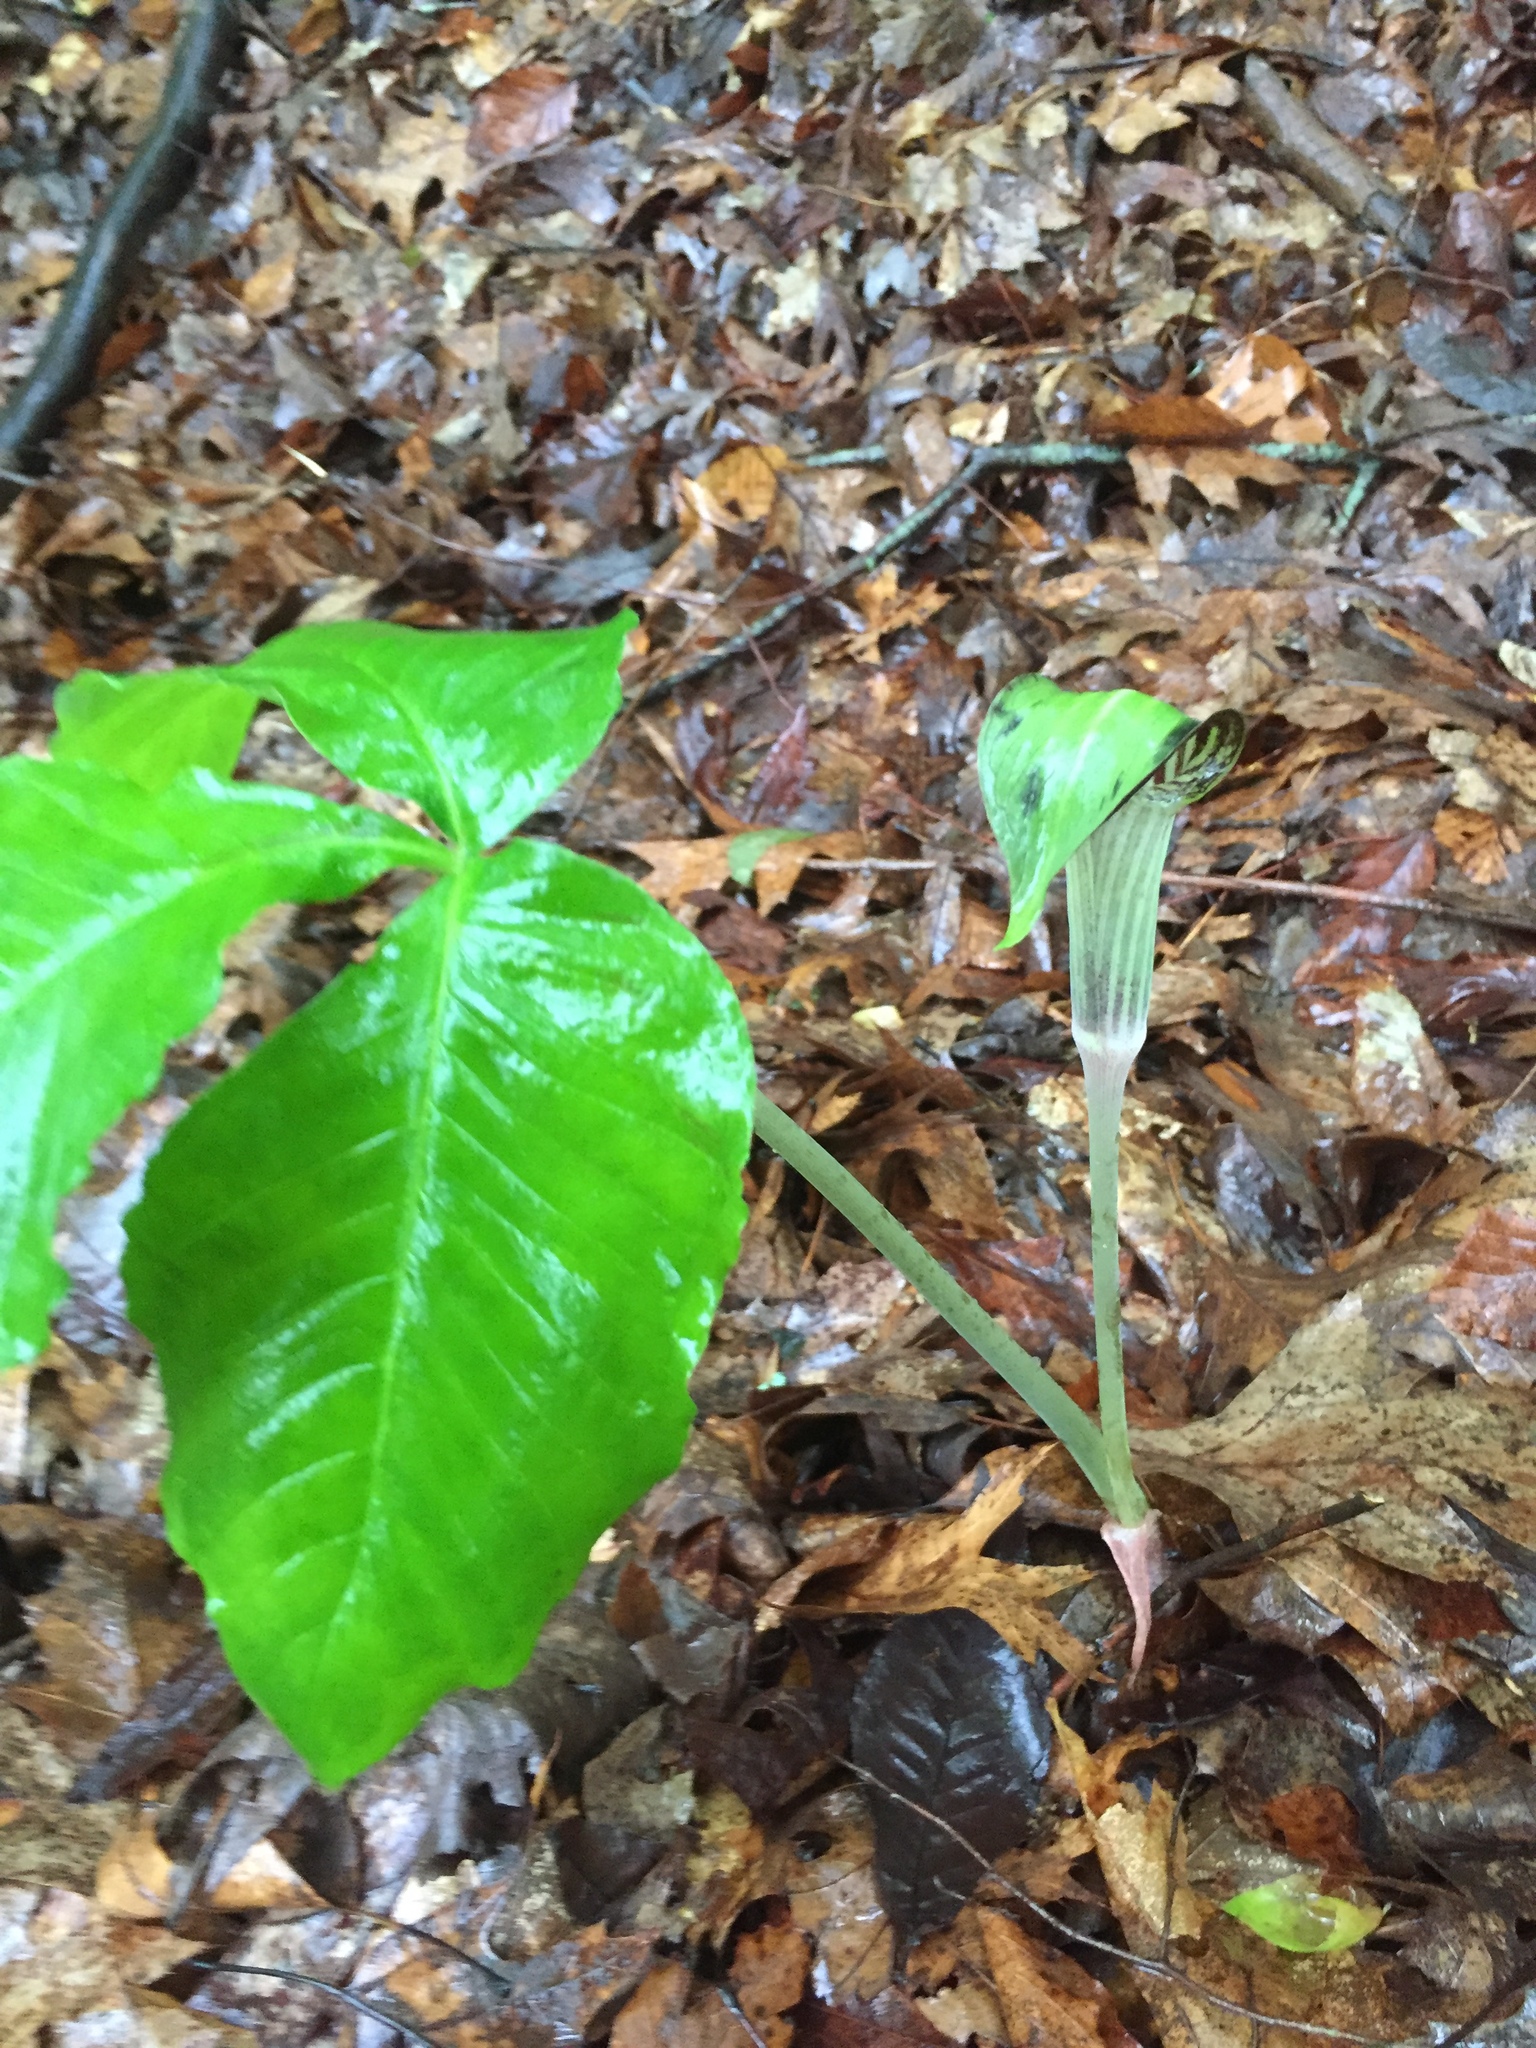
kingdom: Plantae
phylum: Tracheophyta
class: Liliopsida
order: Alismatales
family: Araceae
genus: Arisaema
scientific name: Arisaema triphyllum
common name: Jack-in-the-pulpit
